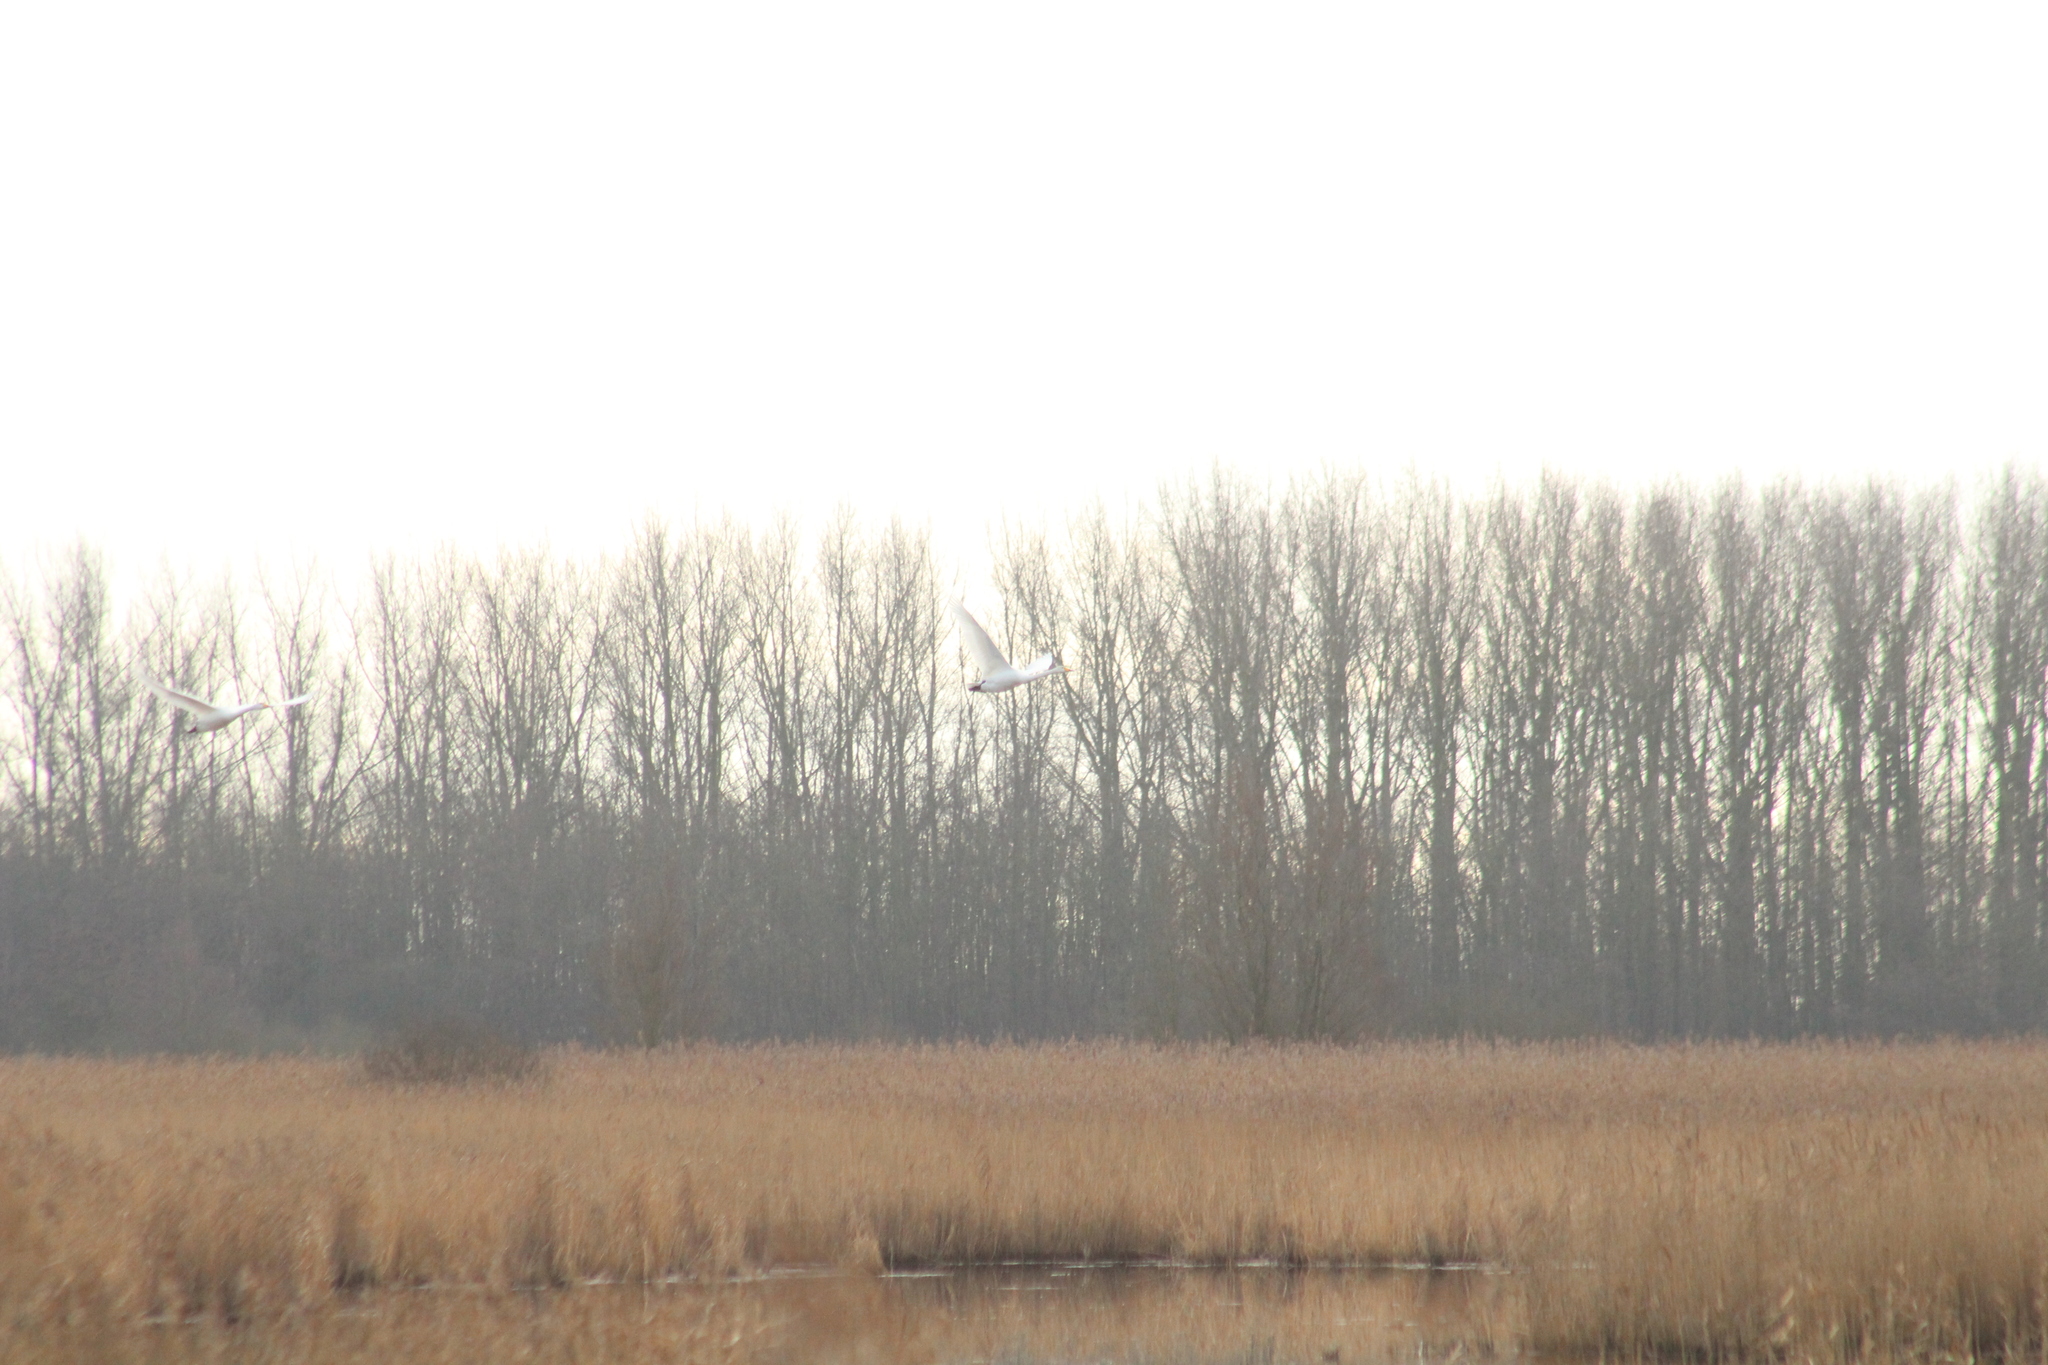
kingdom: Animalia
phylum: Chordata
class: Aves
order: Anseriformes
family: Anatidae
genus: Cygnus
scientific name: Cygnus cygnus
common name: Whooper swan
